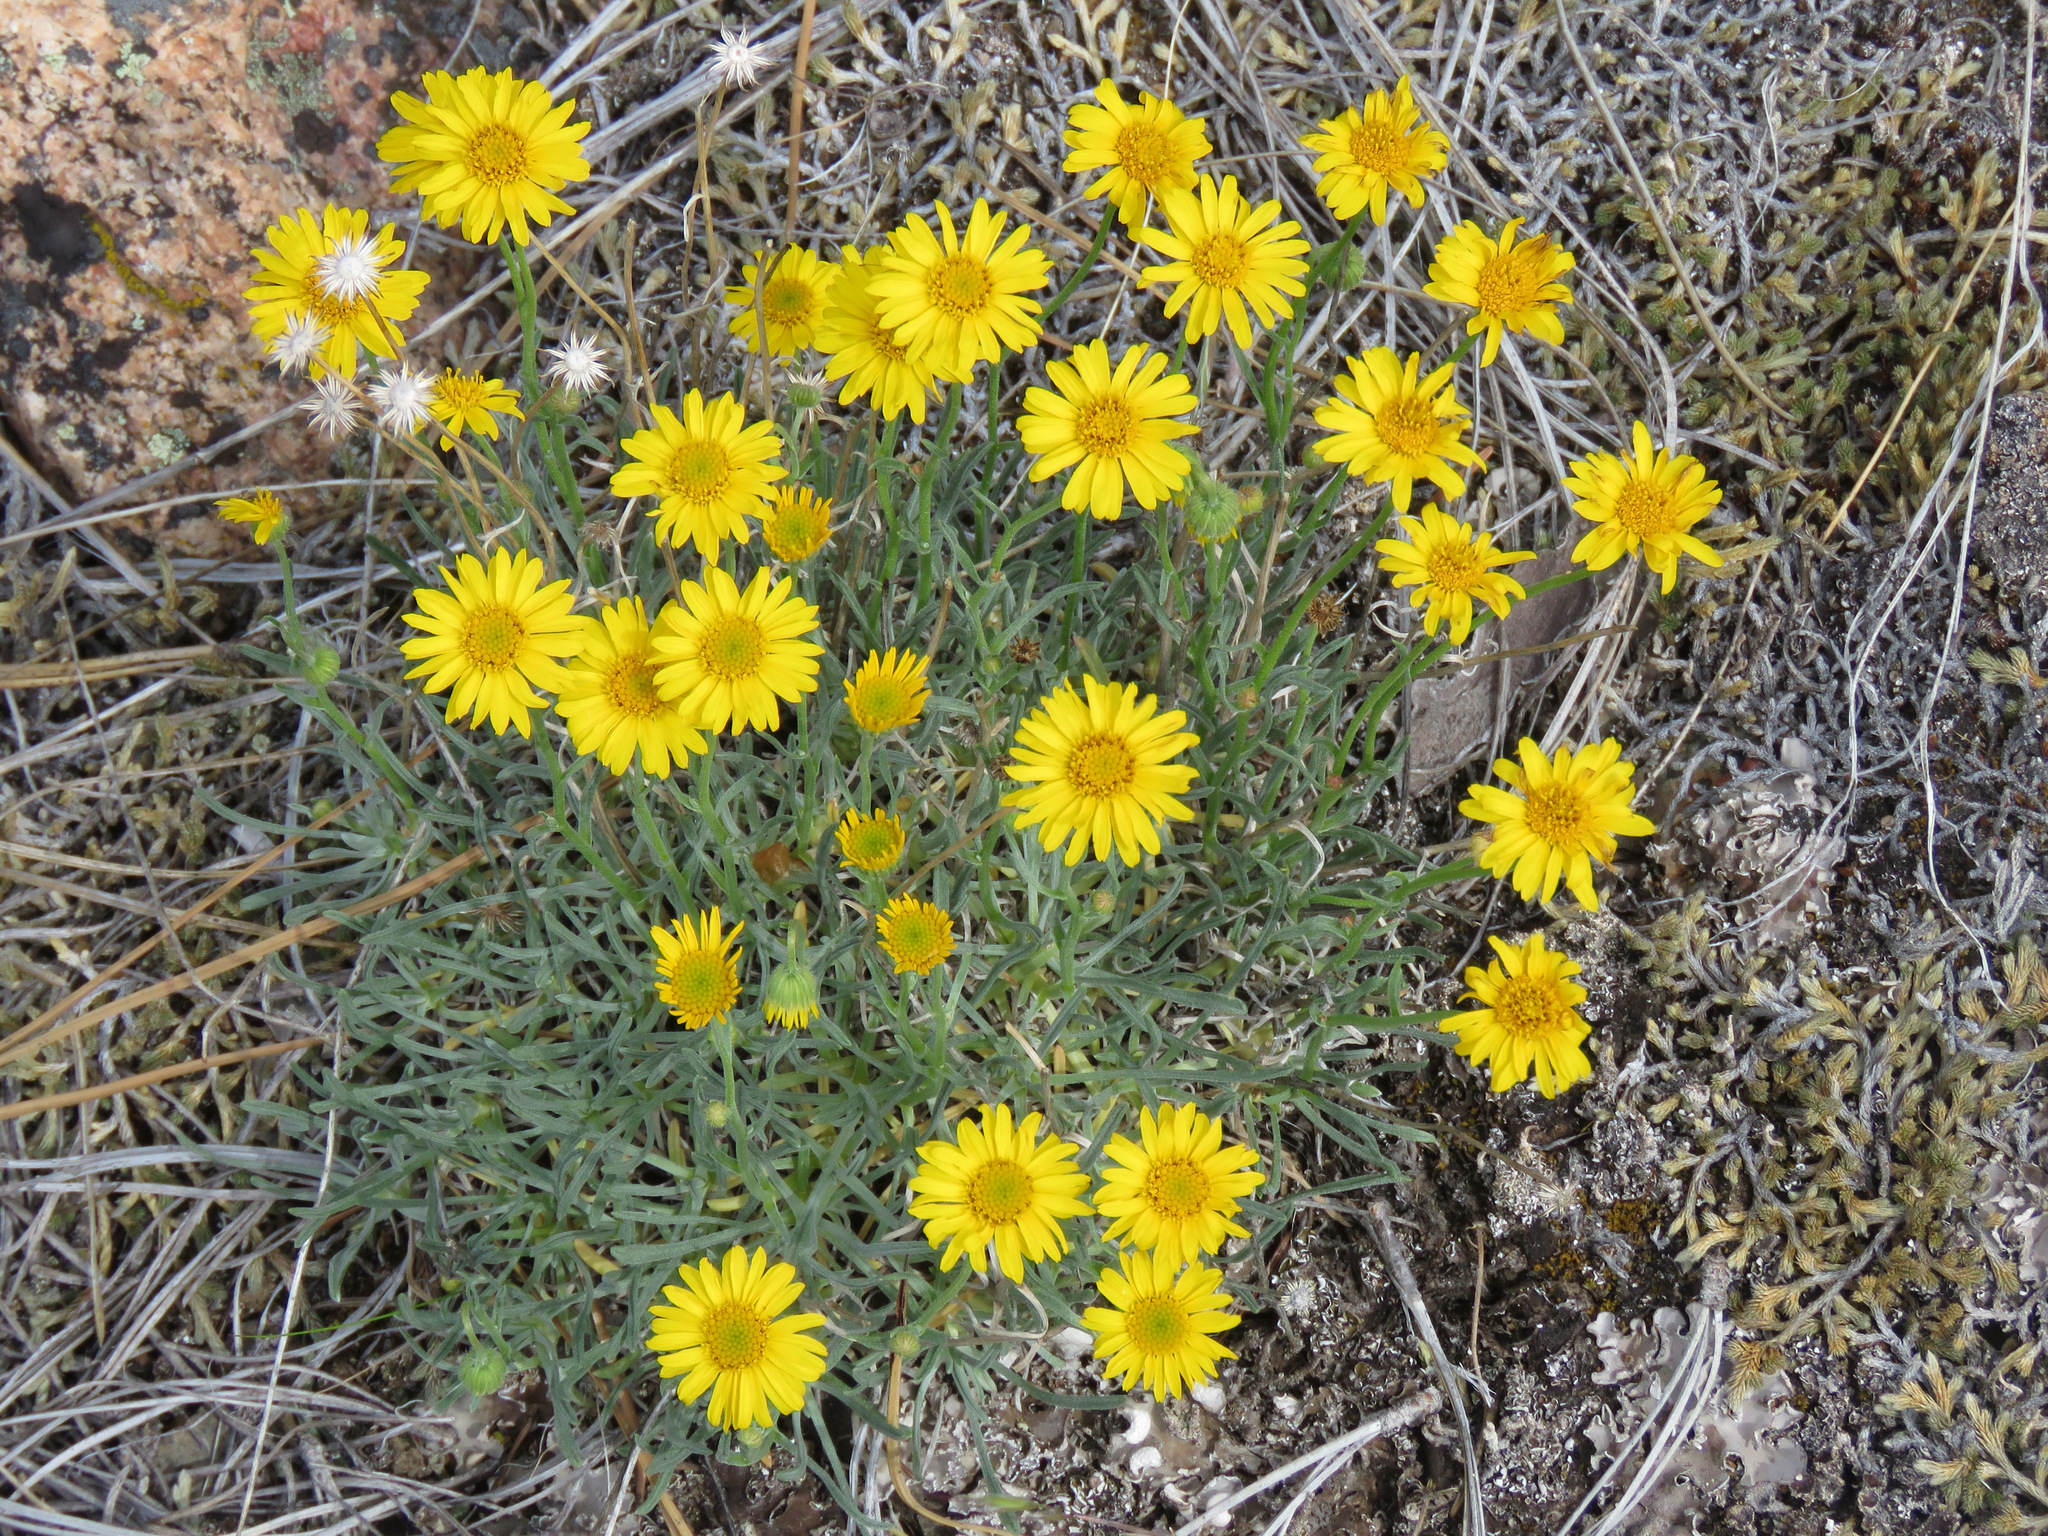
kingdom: Plantae
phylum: Tracheophyta
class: Magnoliopsida
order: Asterales
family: Asteraceae
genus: Erigeron
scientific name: Erigeron linearis
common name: Desert yellow fleabane
